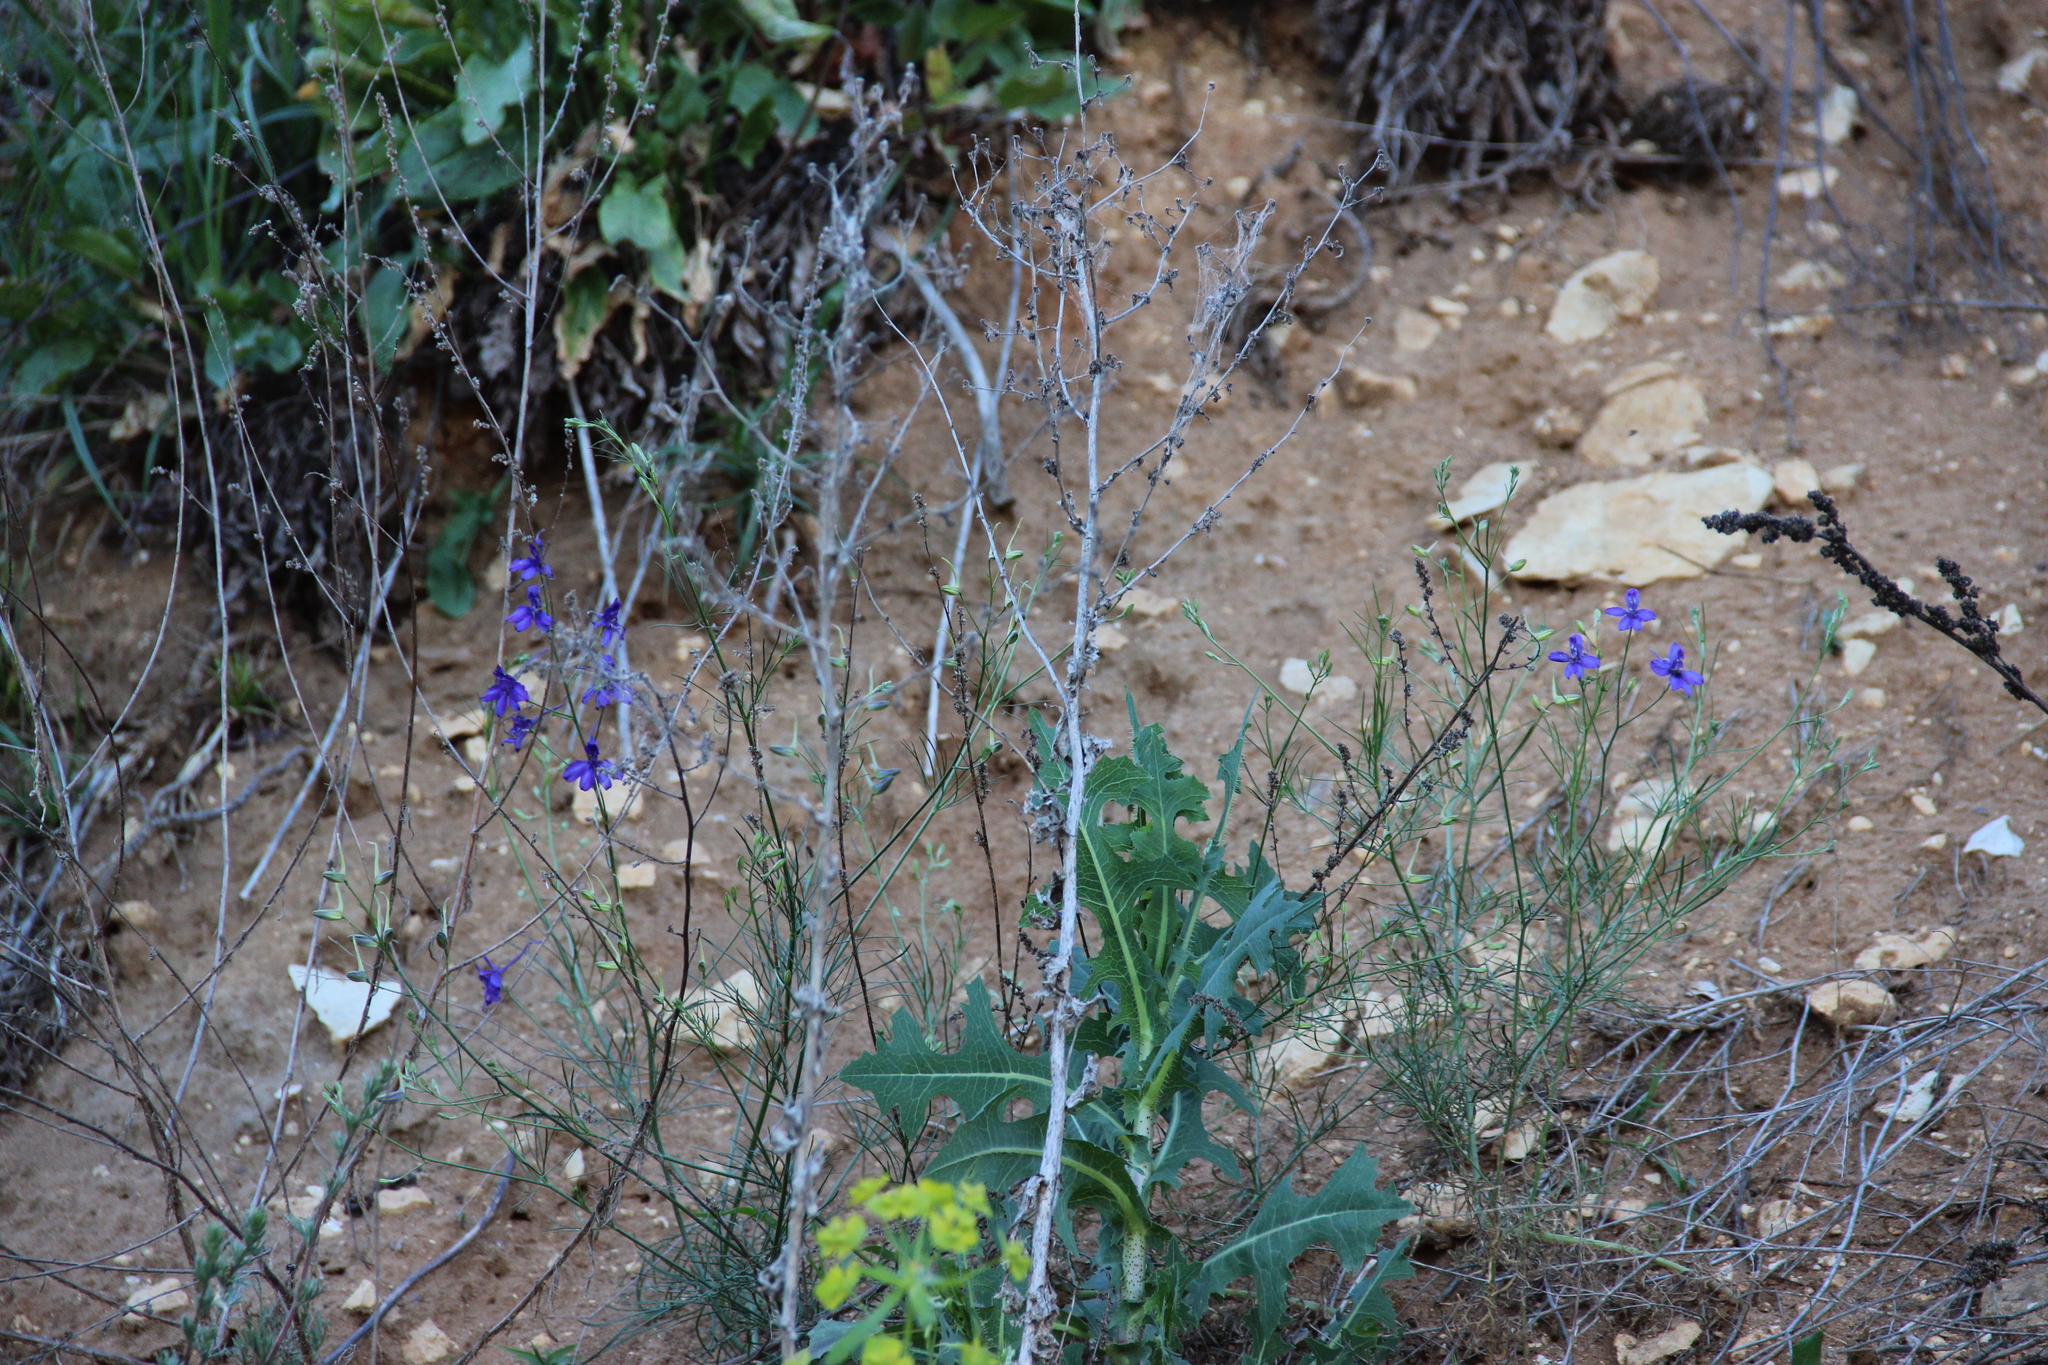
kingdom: Plantae
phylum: Tracheophyta
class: Magnoliopsida
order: Ranunculales
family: Ranunculaceae
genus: Delphinium
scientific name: Delphinium consolida
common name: Branching larkspur
